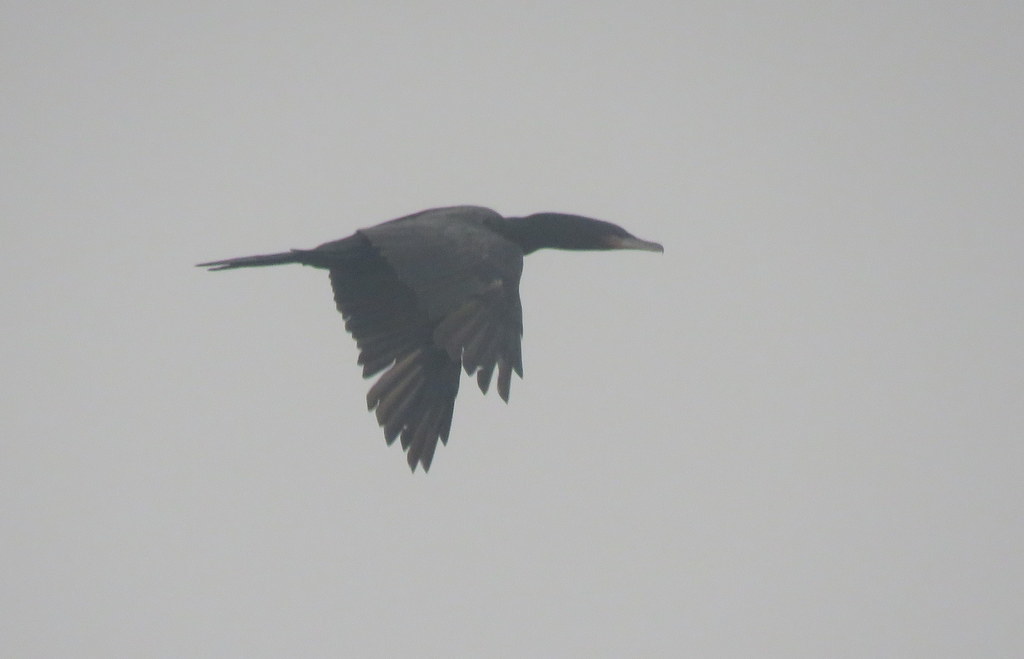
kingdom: Animalia
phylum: Chordata
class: Aves
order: Suliformes
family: Phalacrocoracidae
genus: Phalacrocorax
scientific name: Phalacrocorax brasilianus
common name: Neotropic cormorant
